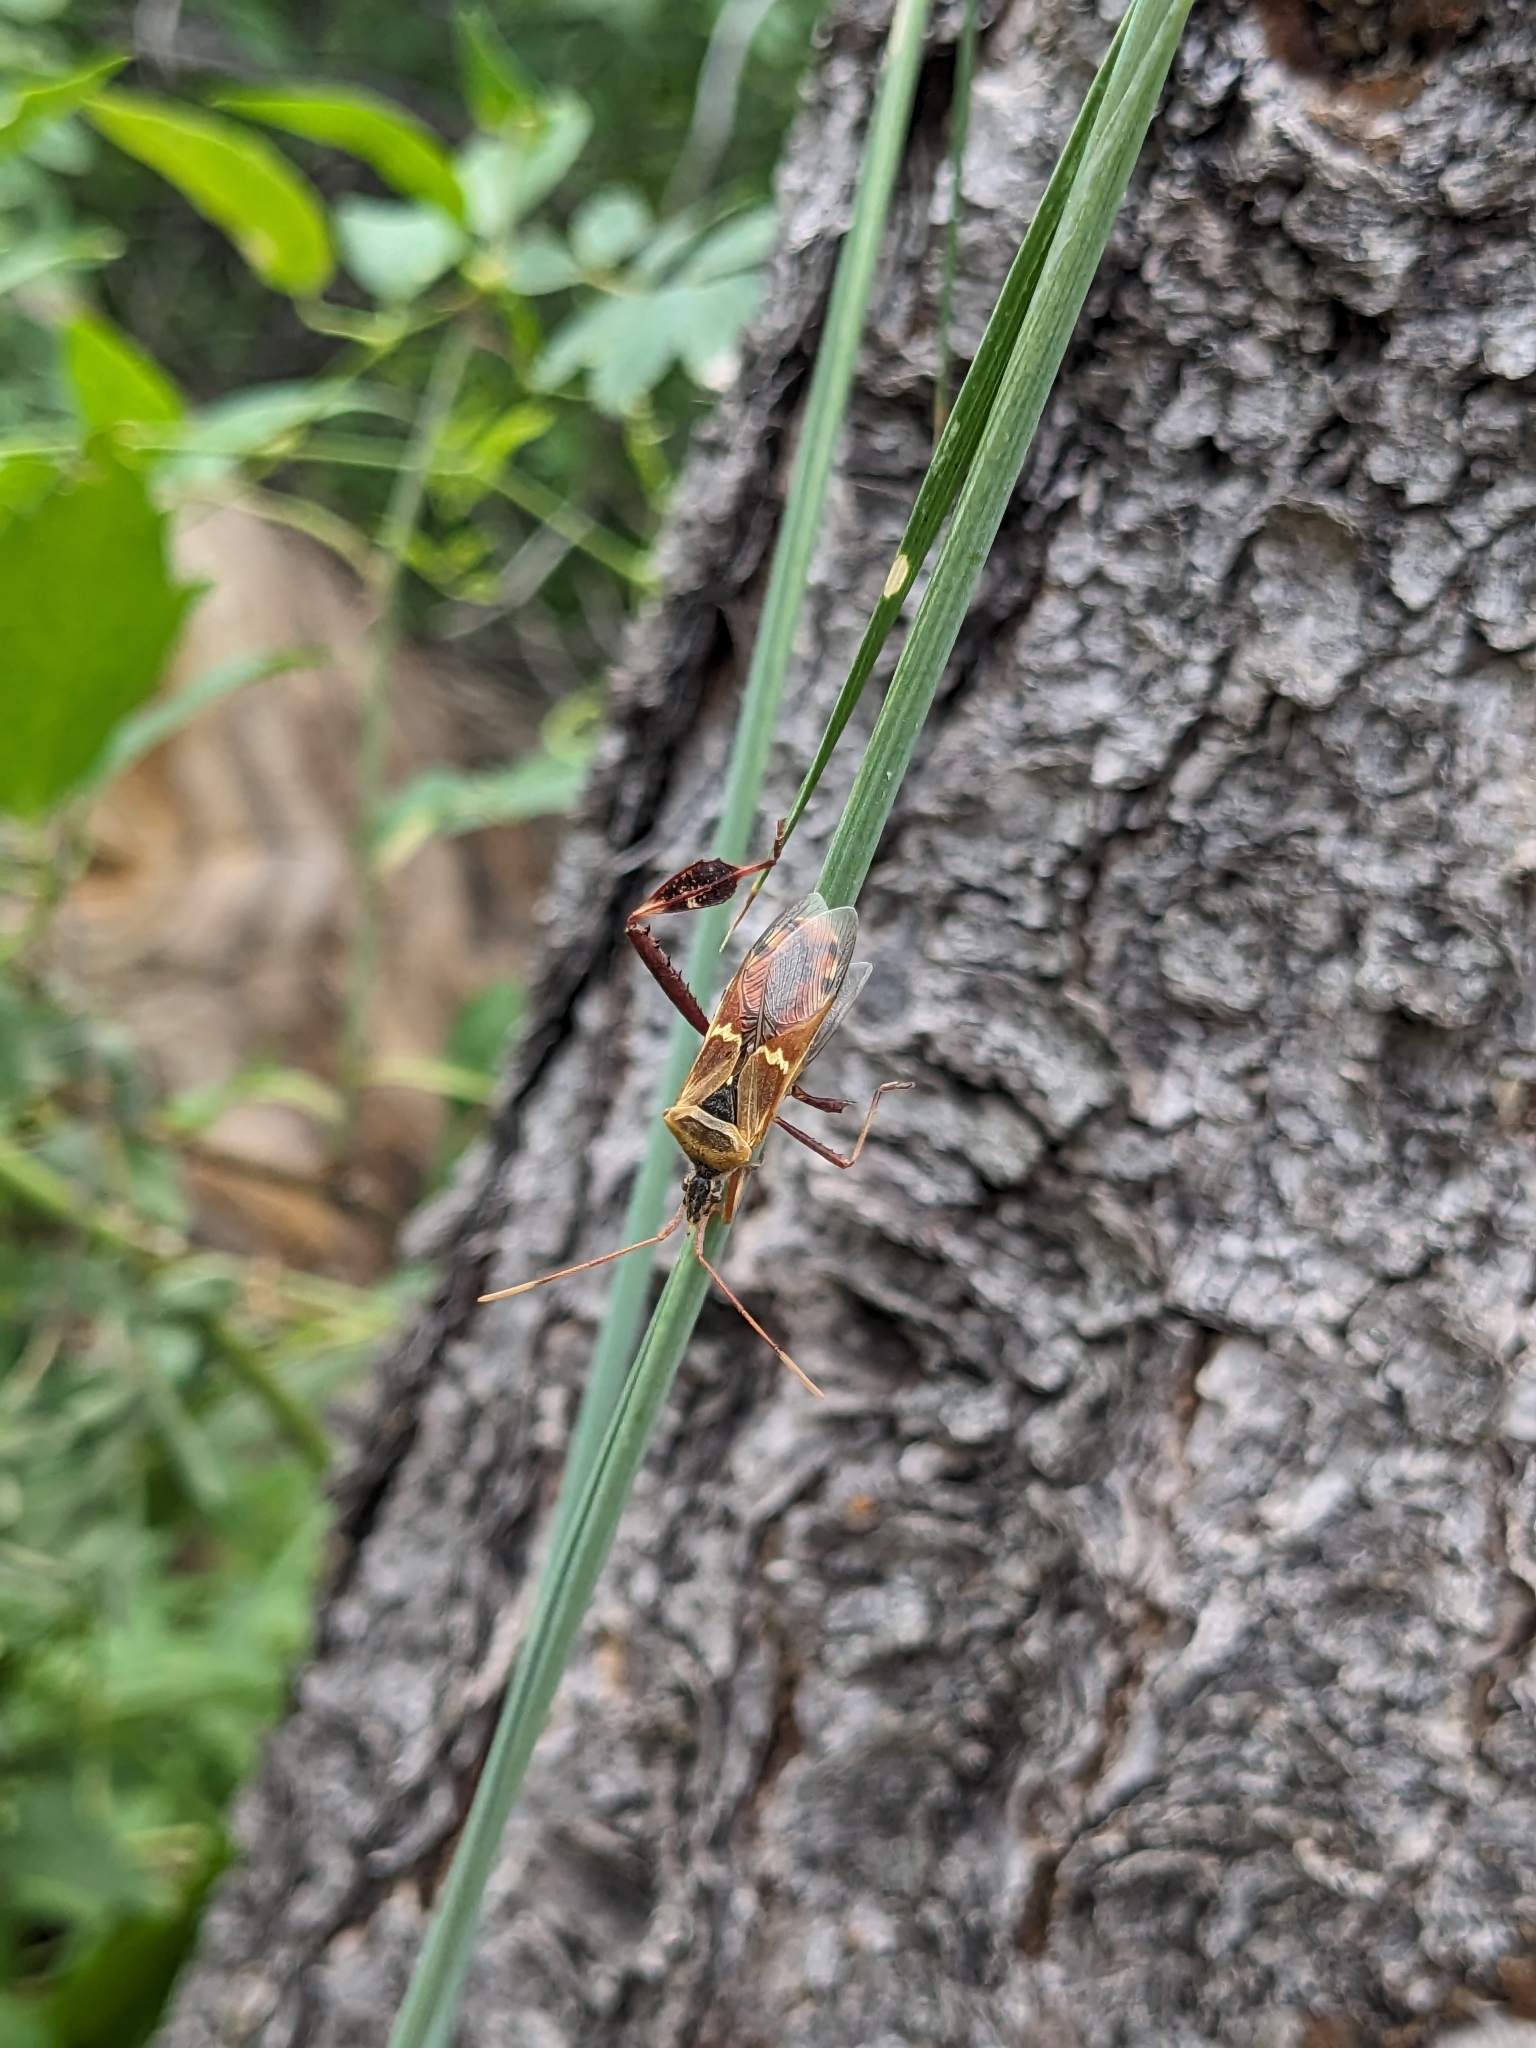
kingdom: Animalia
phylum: Arthropoda
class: Insecta
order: Hemiptera
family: Coreidae
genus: Leptoglossus
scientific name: Leptoglossus clypealis
